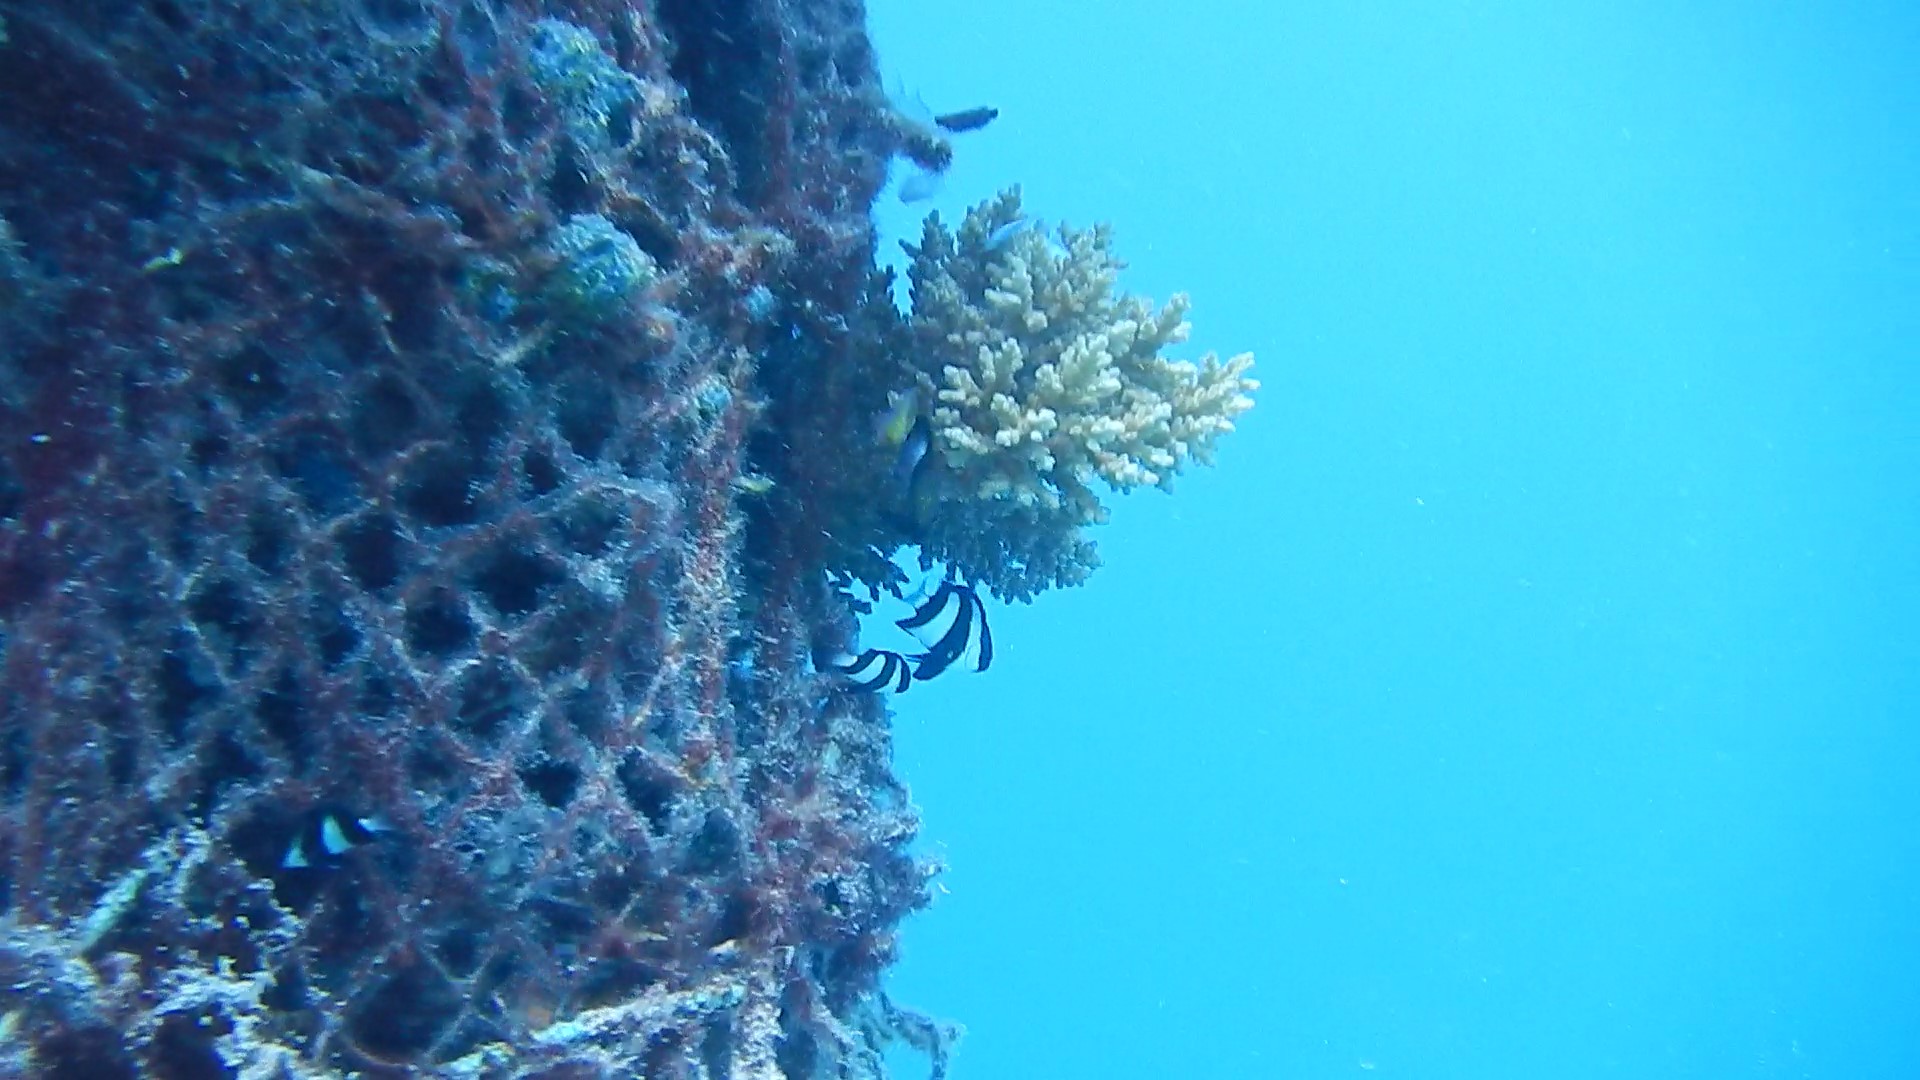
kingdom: Animalia
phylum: Chordata
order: Perciformes
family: Pomacentridae
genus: Dascyllus
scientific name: Dascyllus aruanus
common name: Humbug dascyllus
